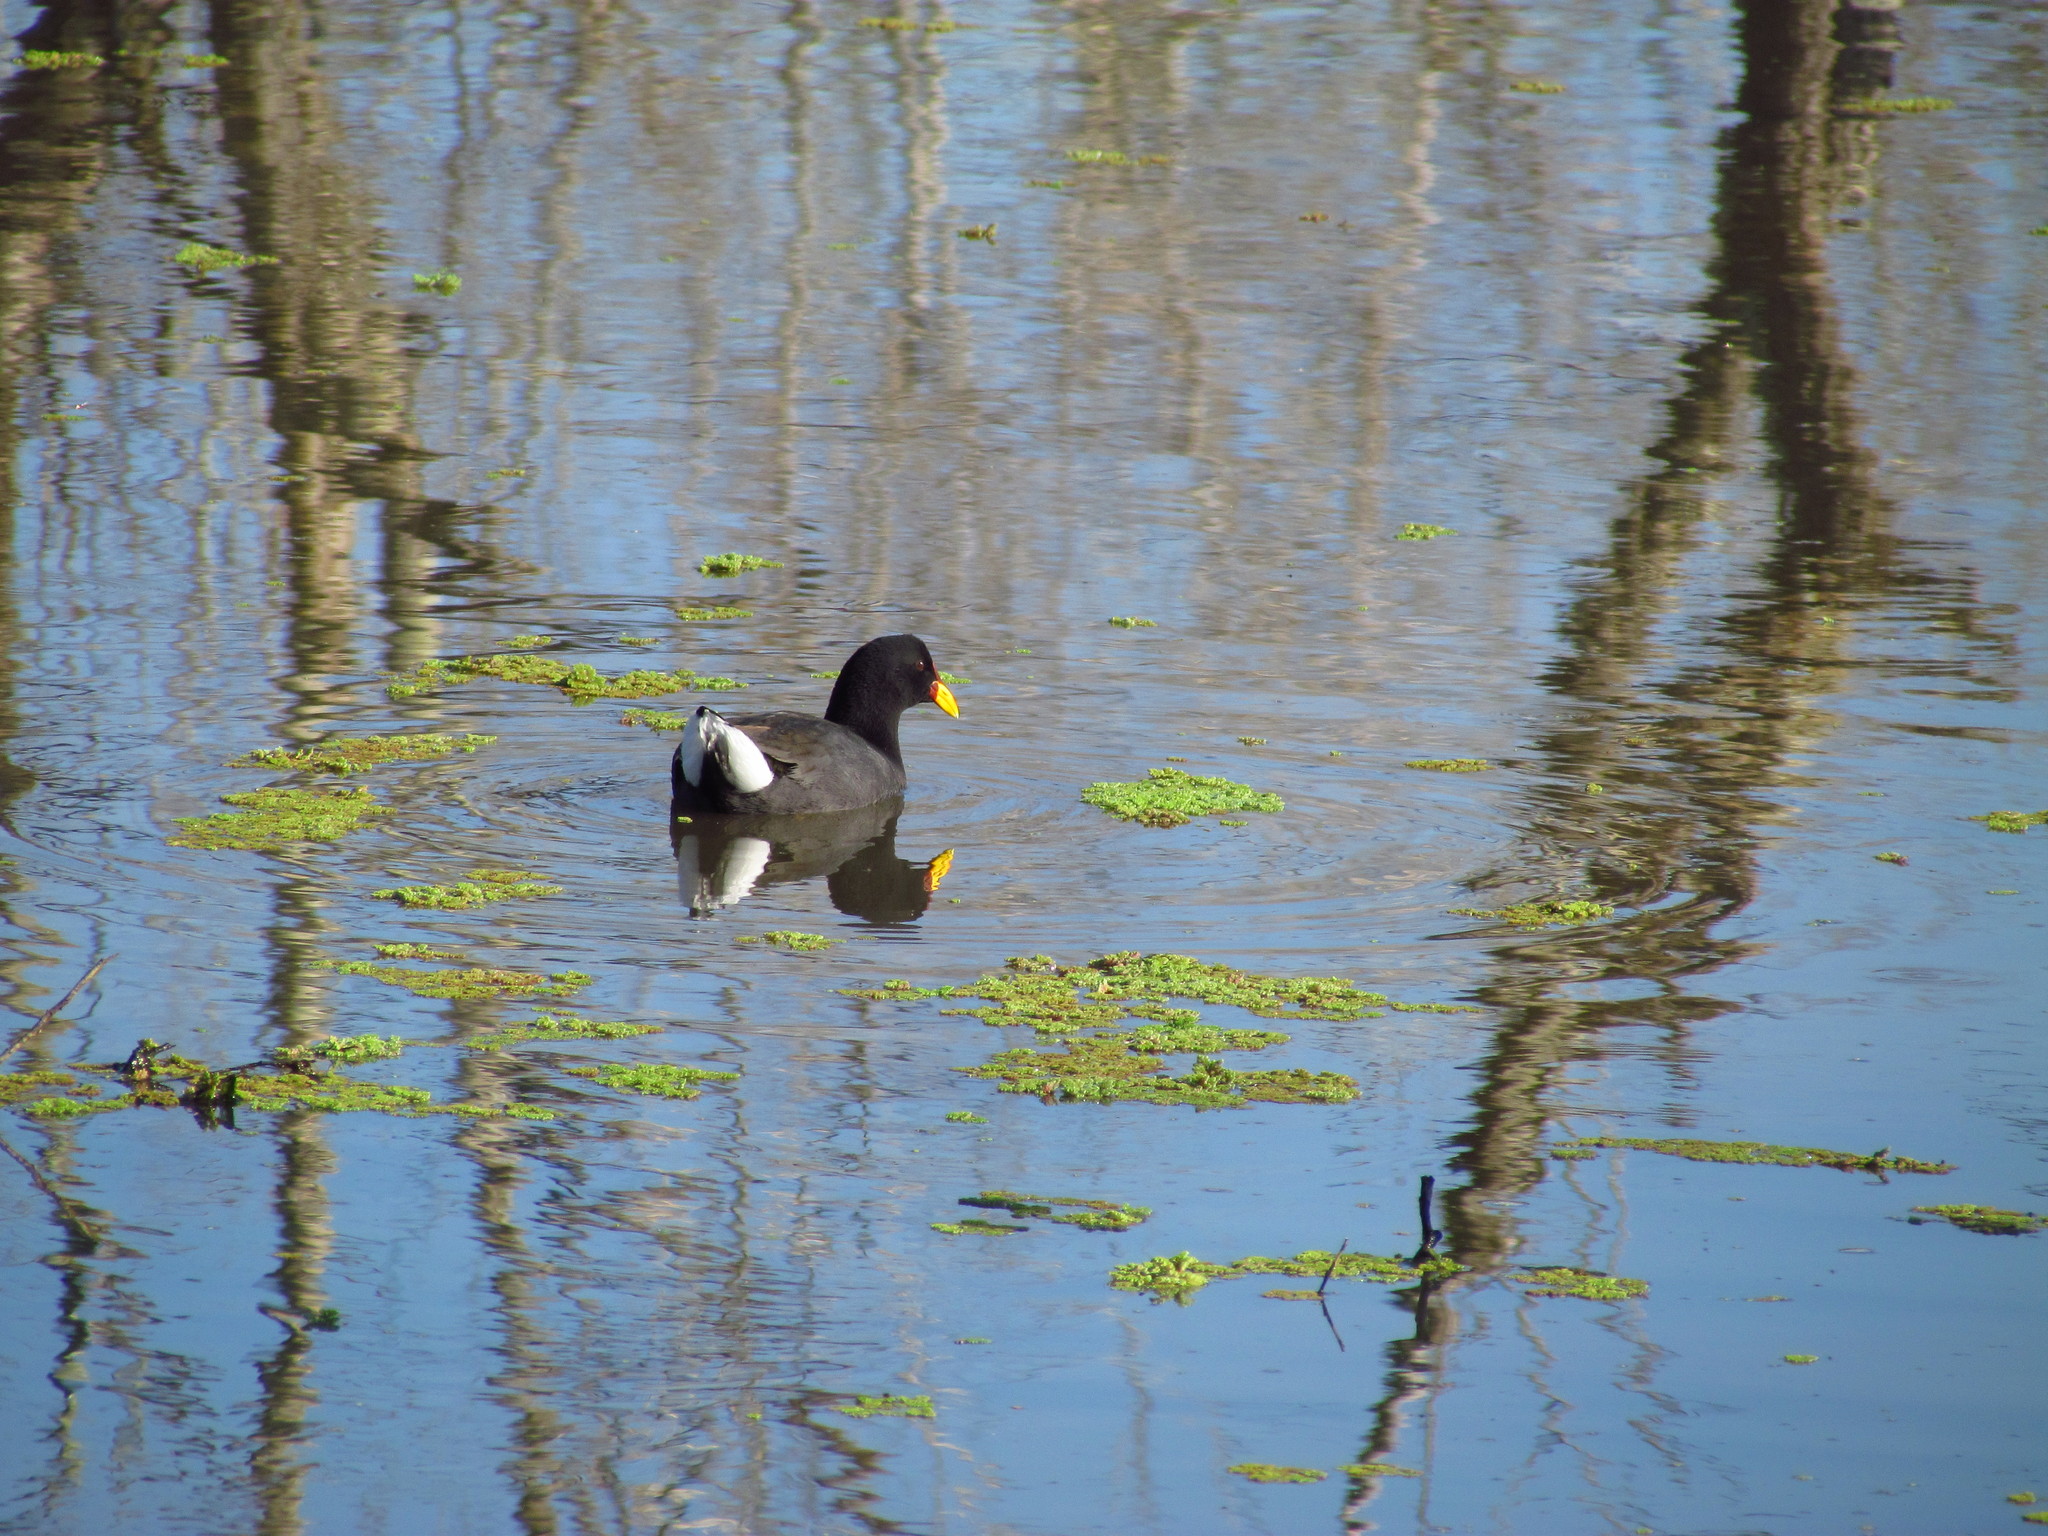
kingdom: Animalia
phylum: Chordata
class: Aves
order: Gruiformes
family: Rallidae
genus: Fulica
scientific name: Fulica rufifrons
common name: Red-fronted coot
